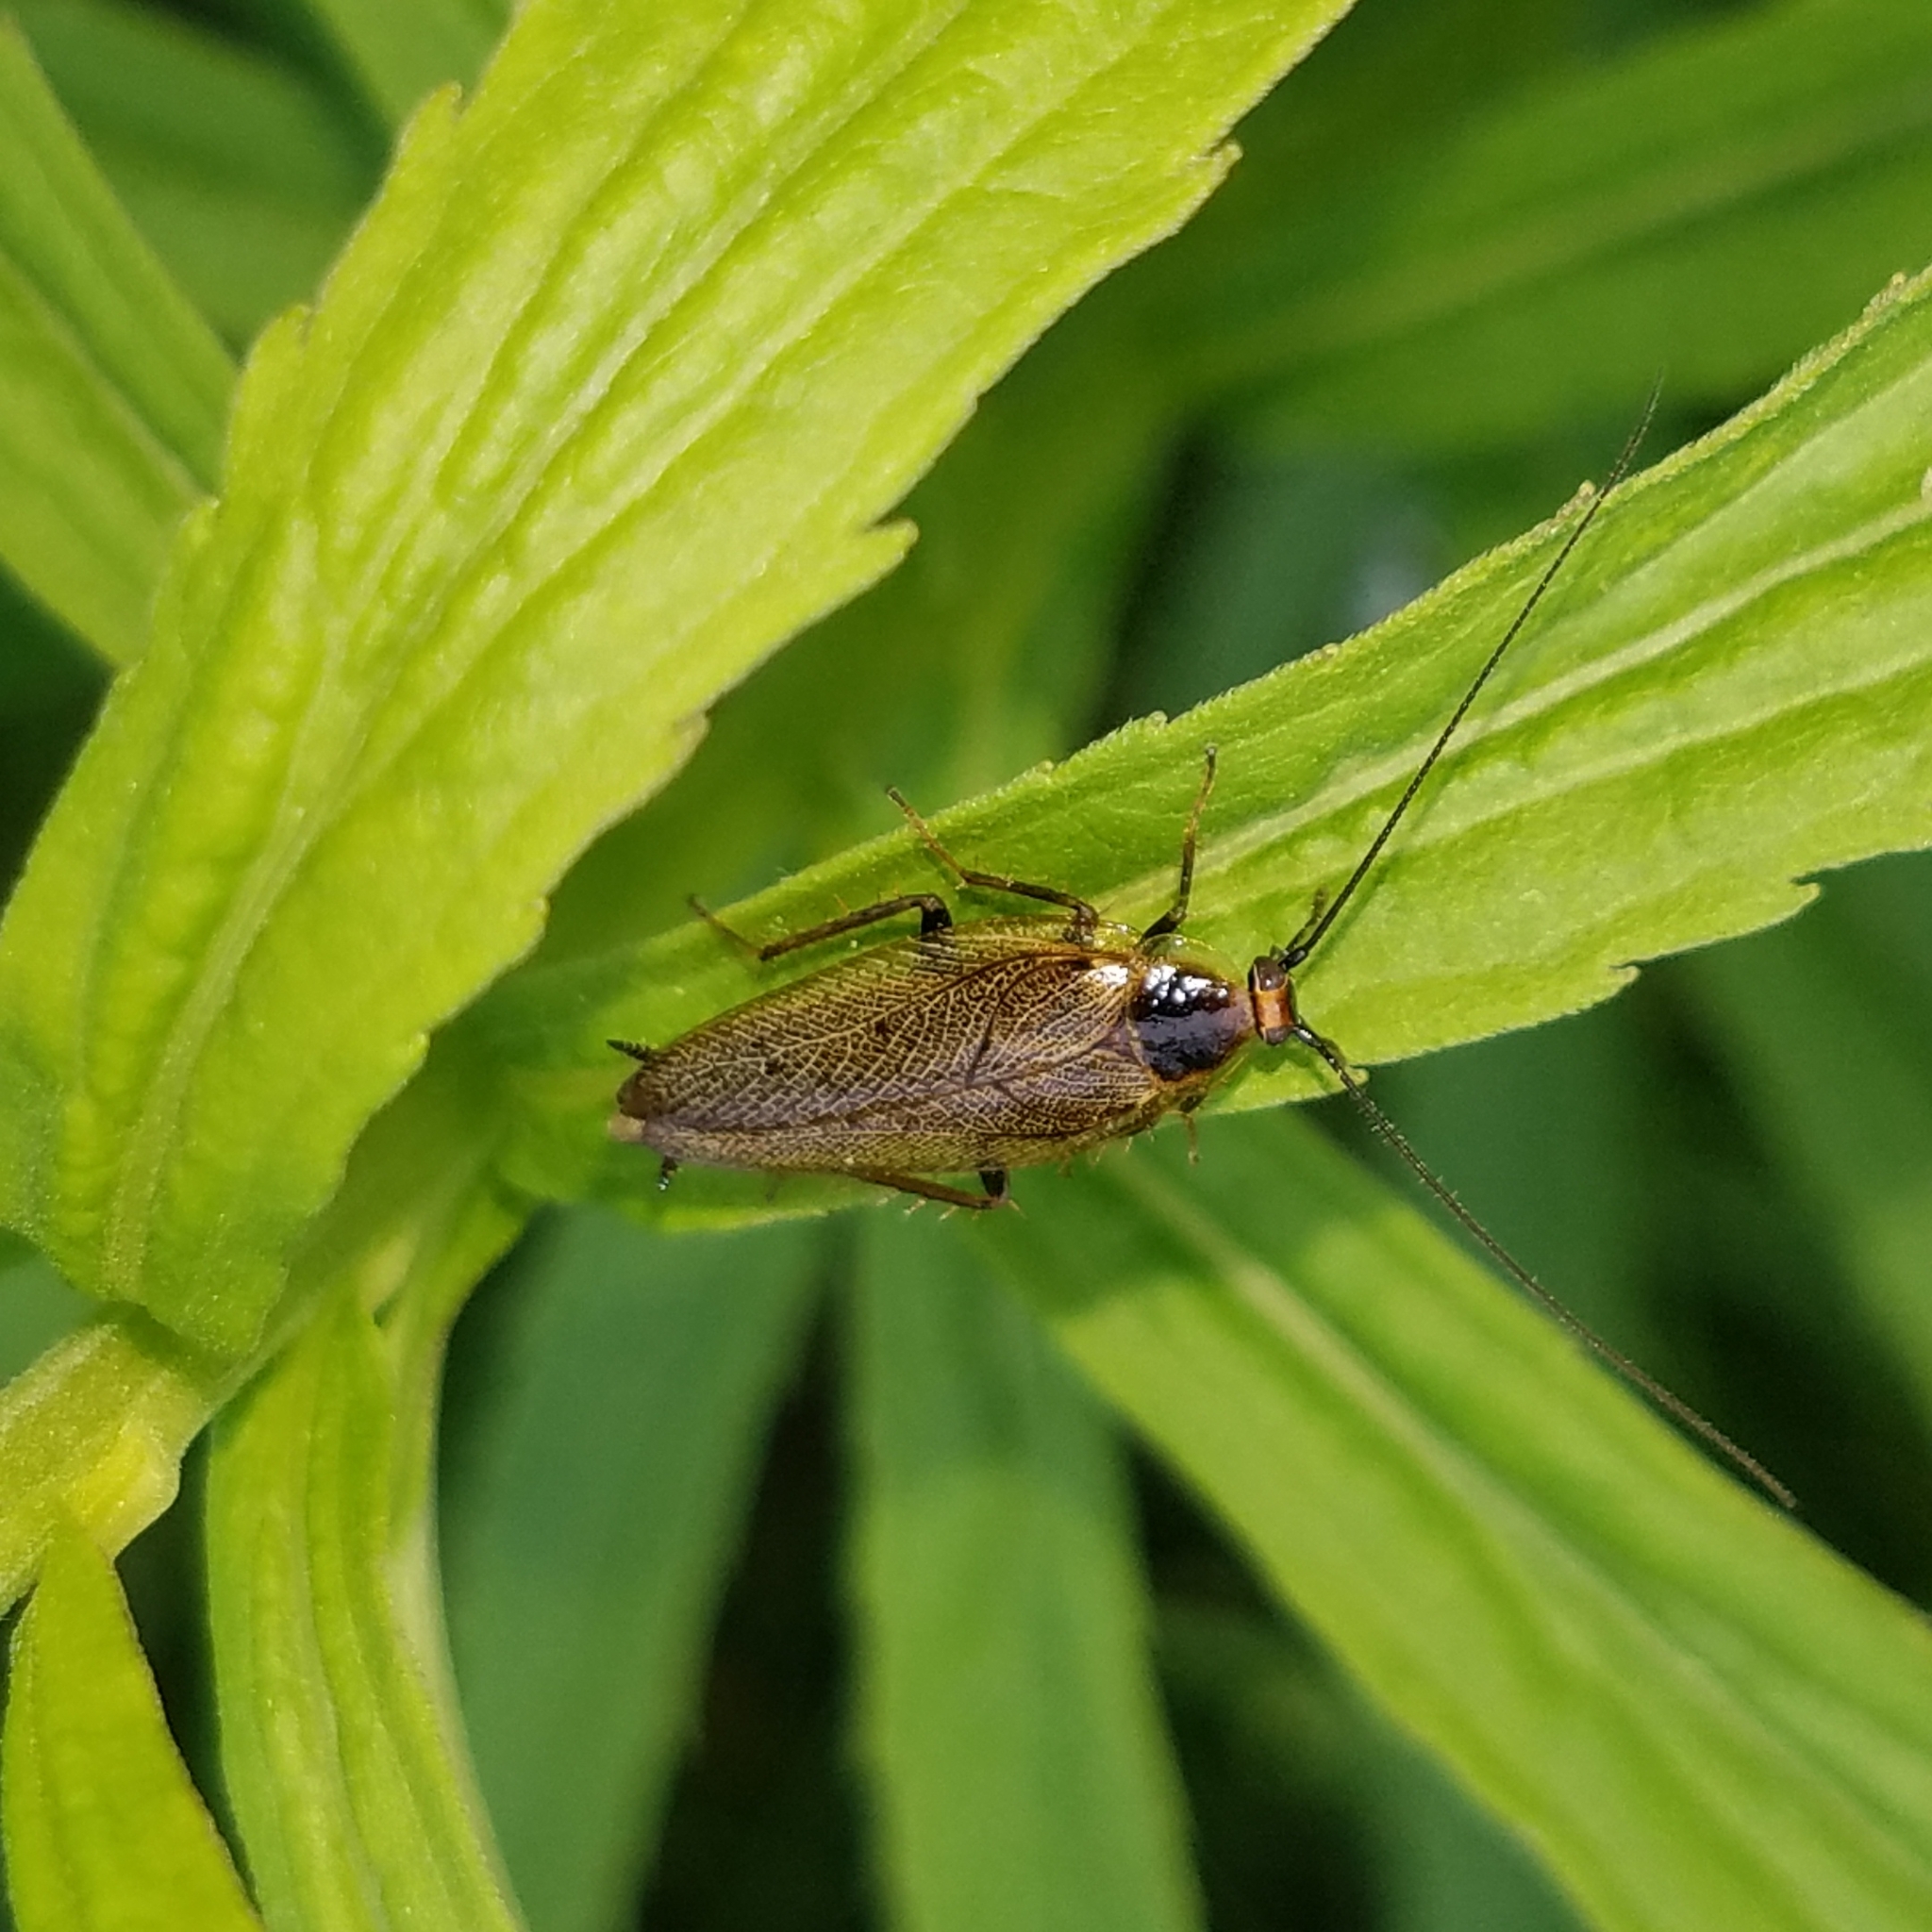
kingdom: Animalia
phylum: Arthropoda
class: Insecta
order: Blattodea
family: Ectobiidae
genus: Ectobius
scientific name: Ectobius lapponicus
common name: Dusky cockroach
